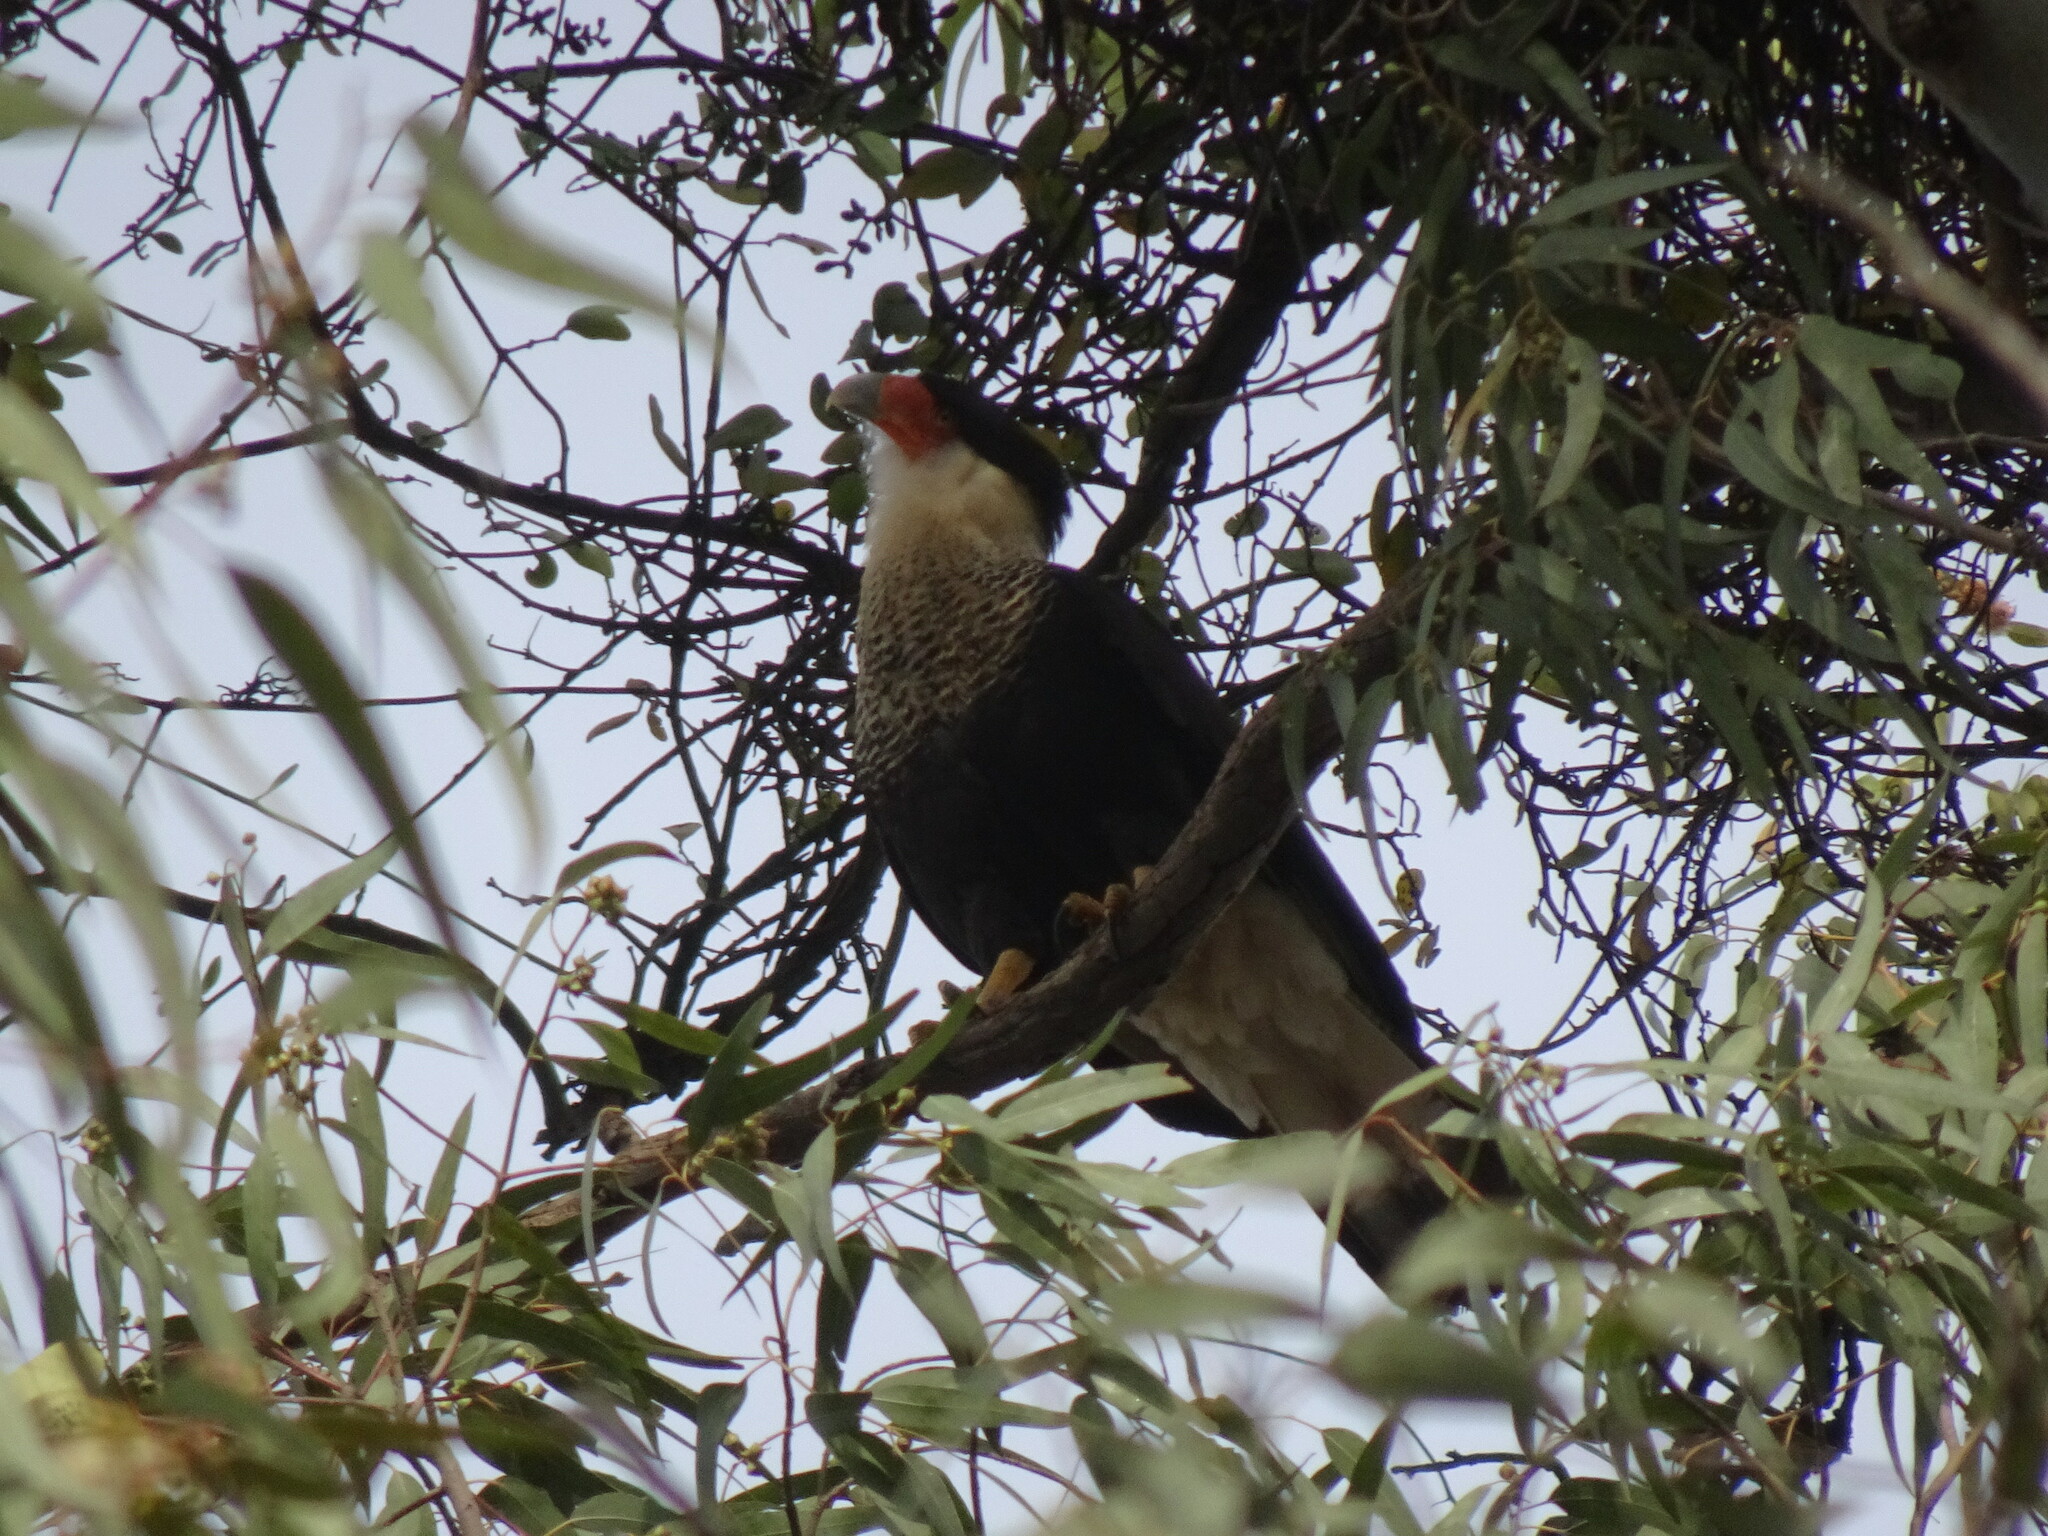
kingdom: Animalia
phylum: Chordata
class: Aves
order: Falconiformes
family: Falconidae
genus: Caracara
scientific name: Caracara plancus
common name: Southern caracara
